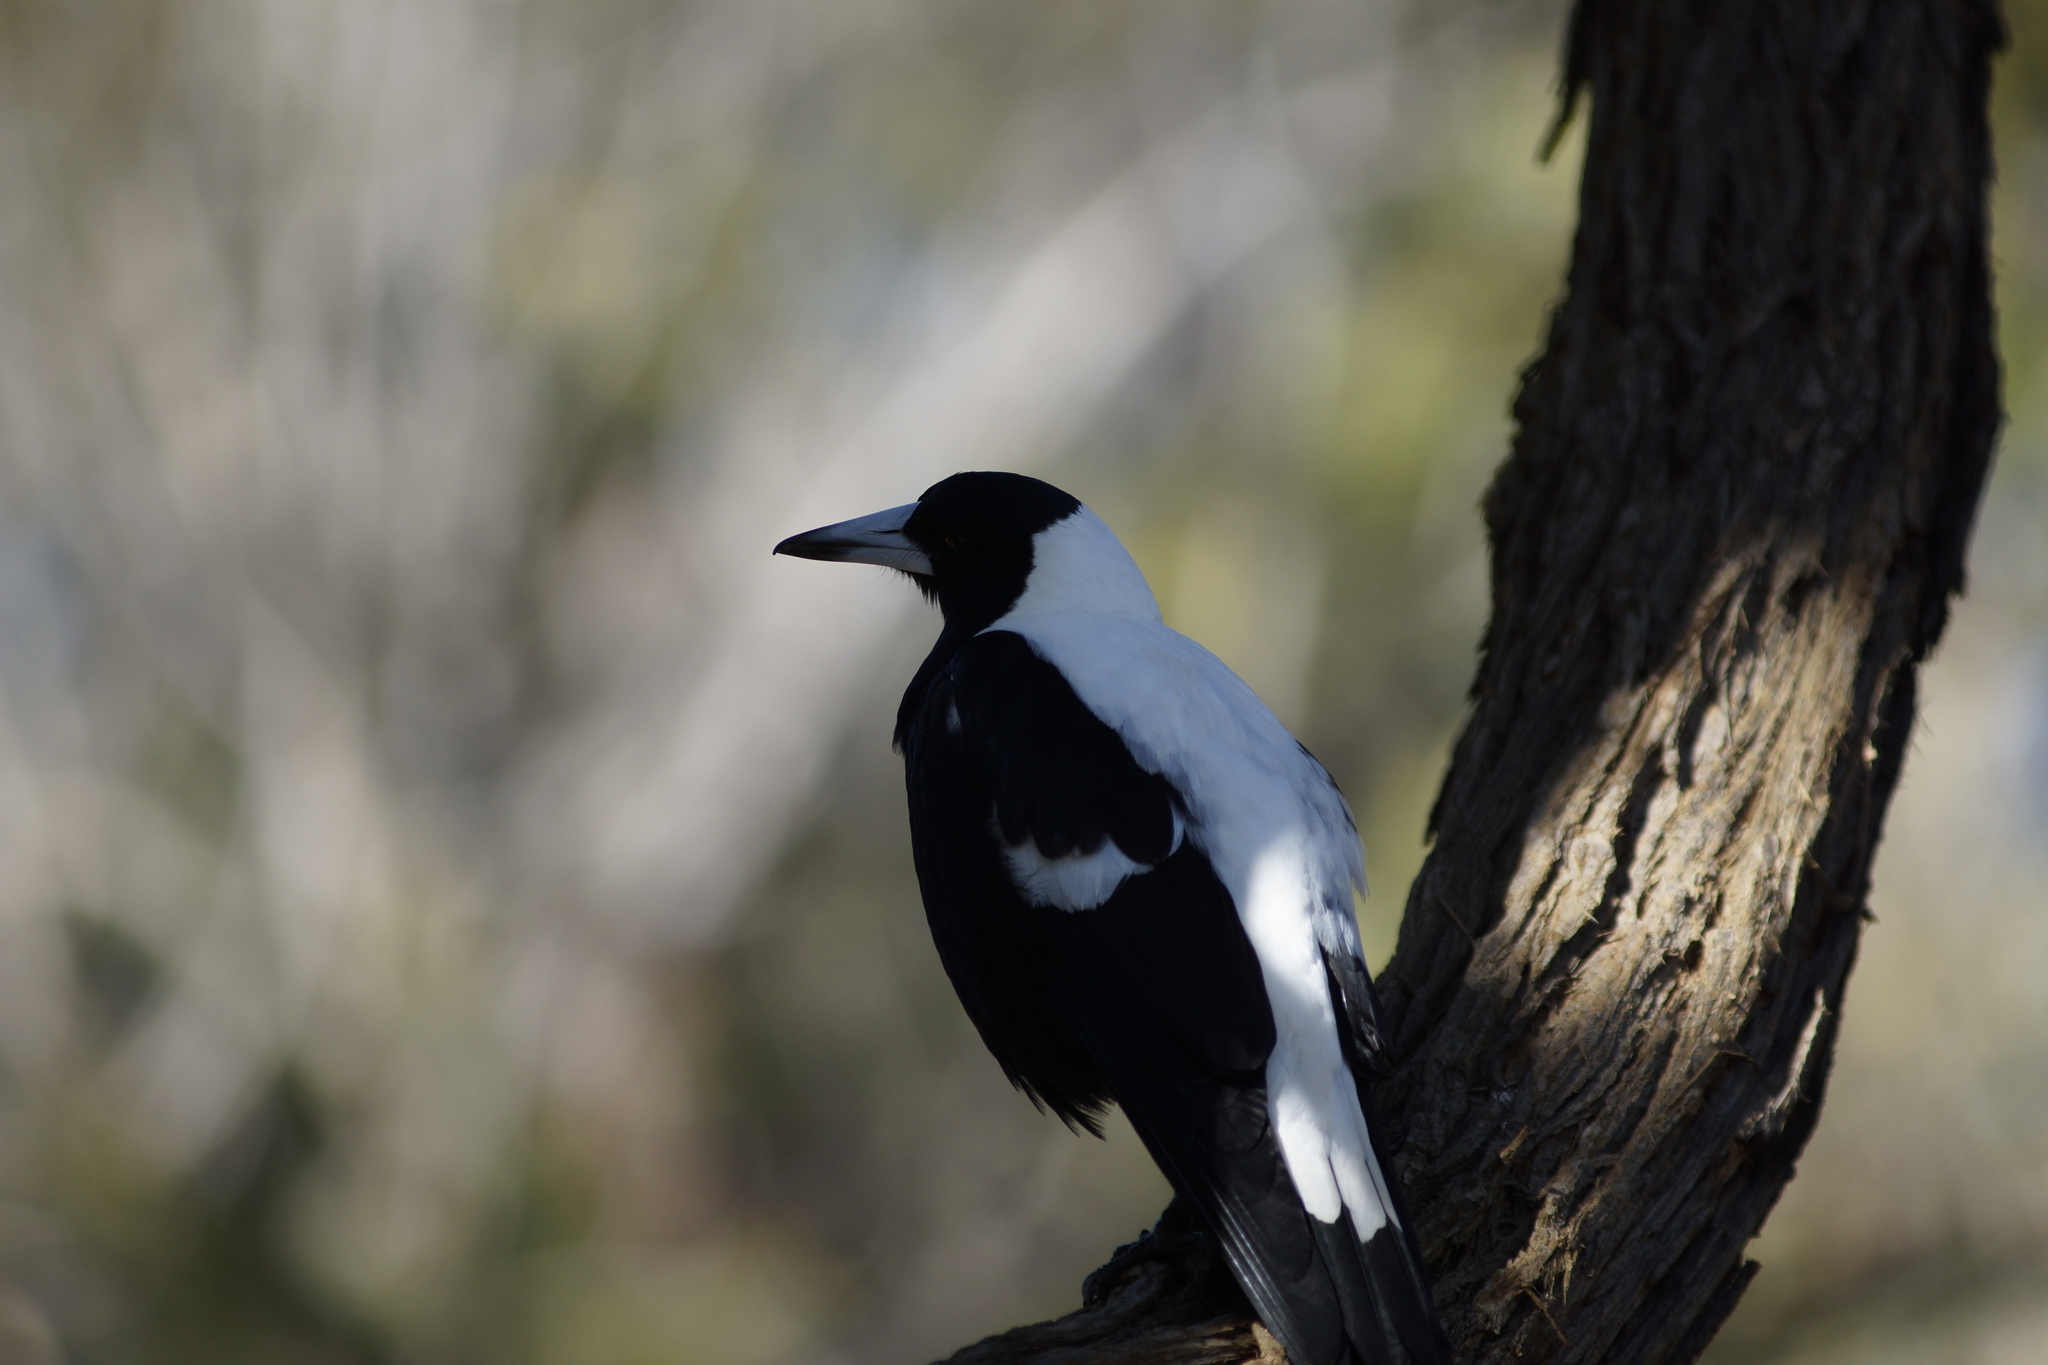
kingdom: Animalia
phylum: Chordata
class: Aves
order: Passeriformes
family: Cracticidae
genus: Gymnorhina
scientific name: Gymnorhina tibicen
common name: Australian magpie
